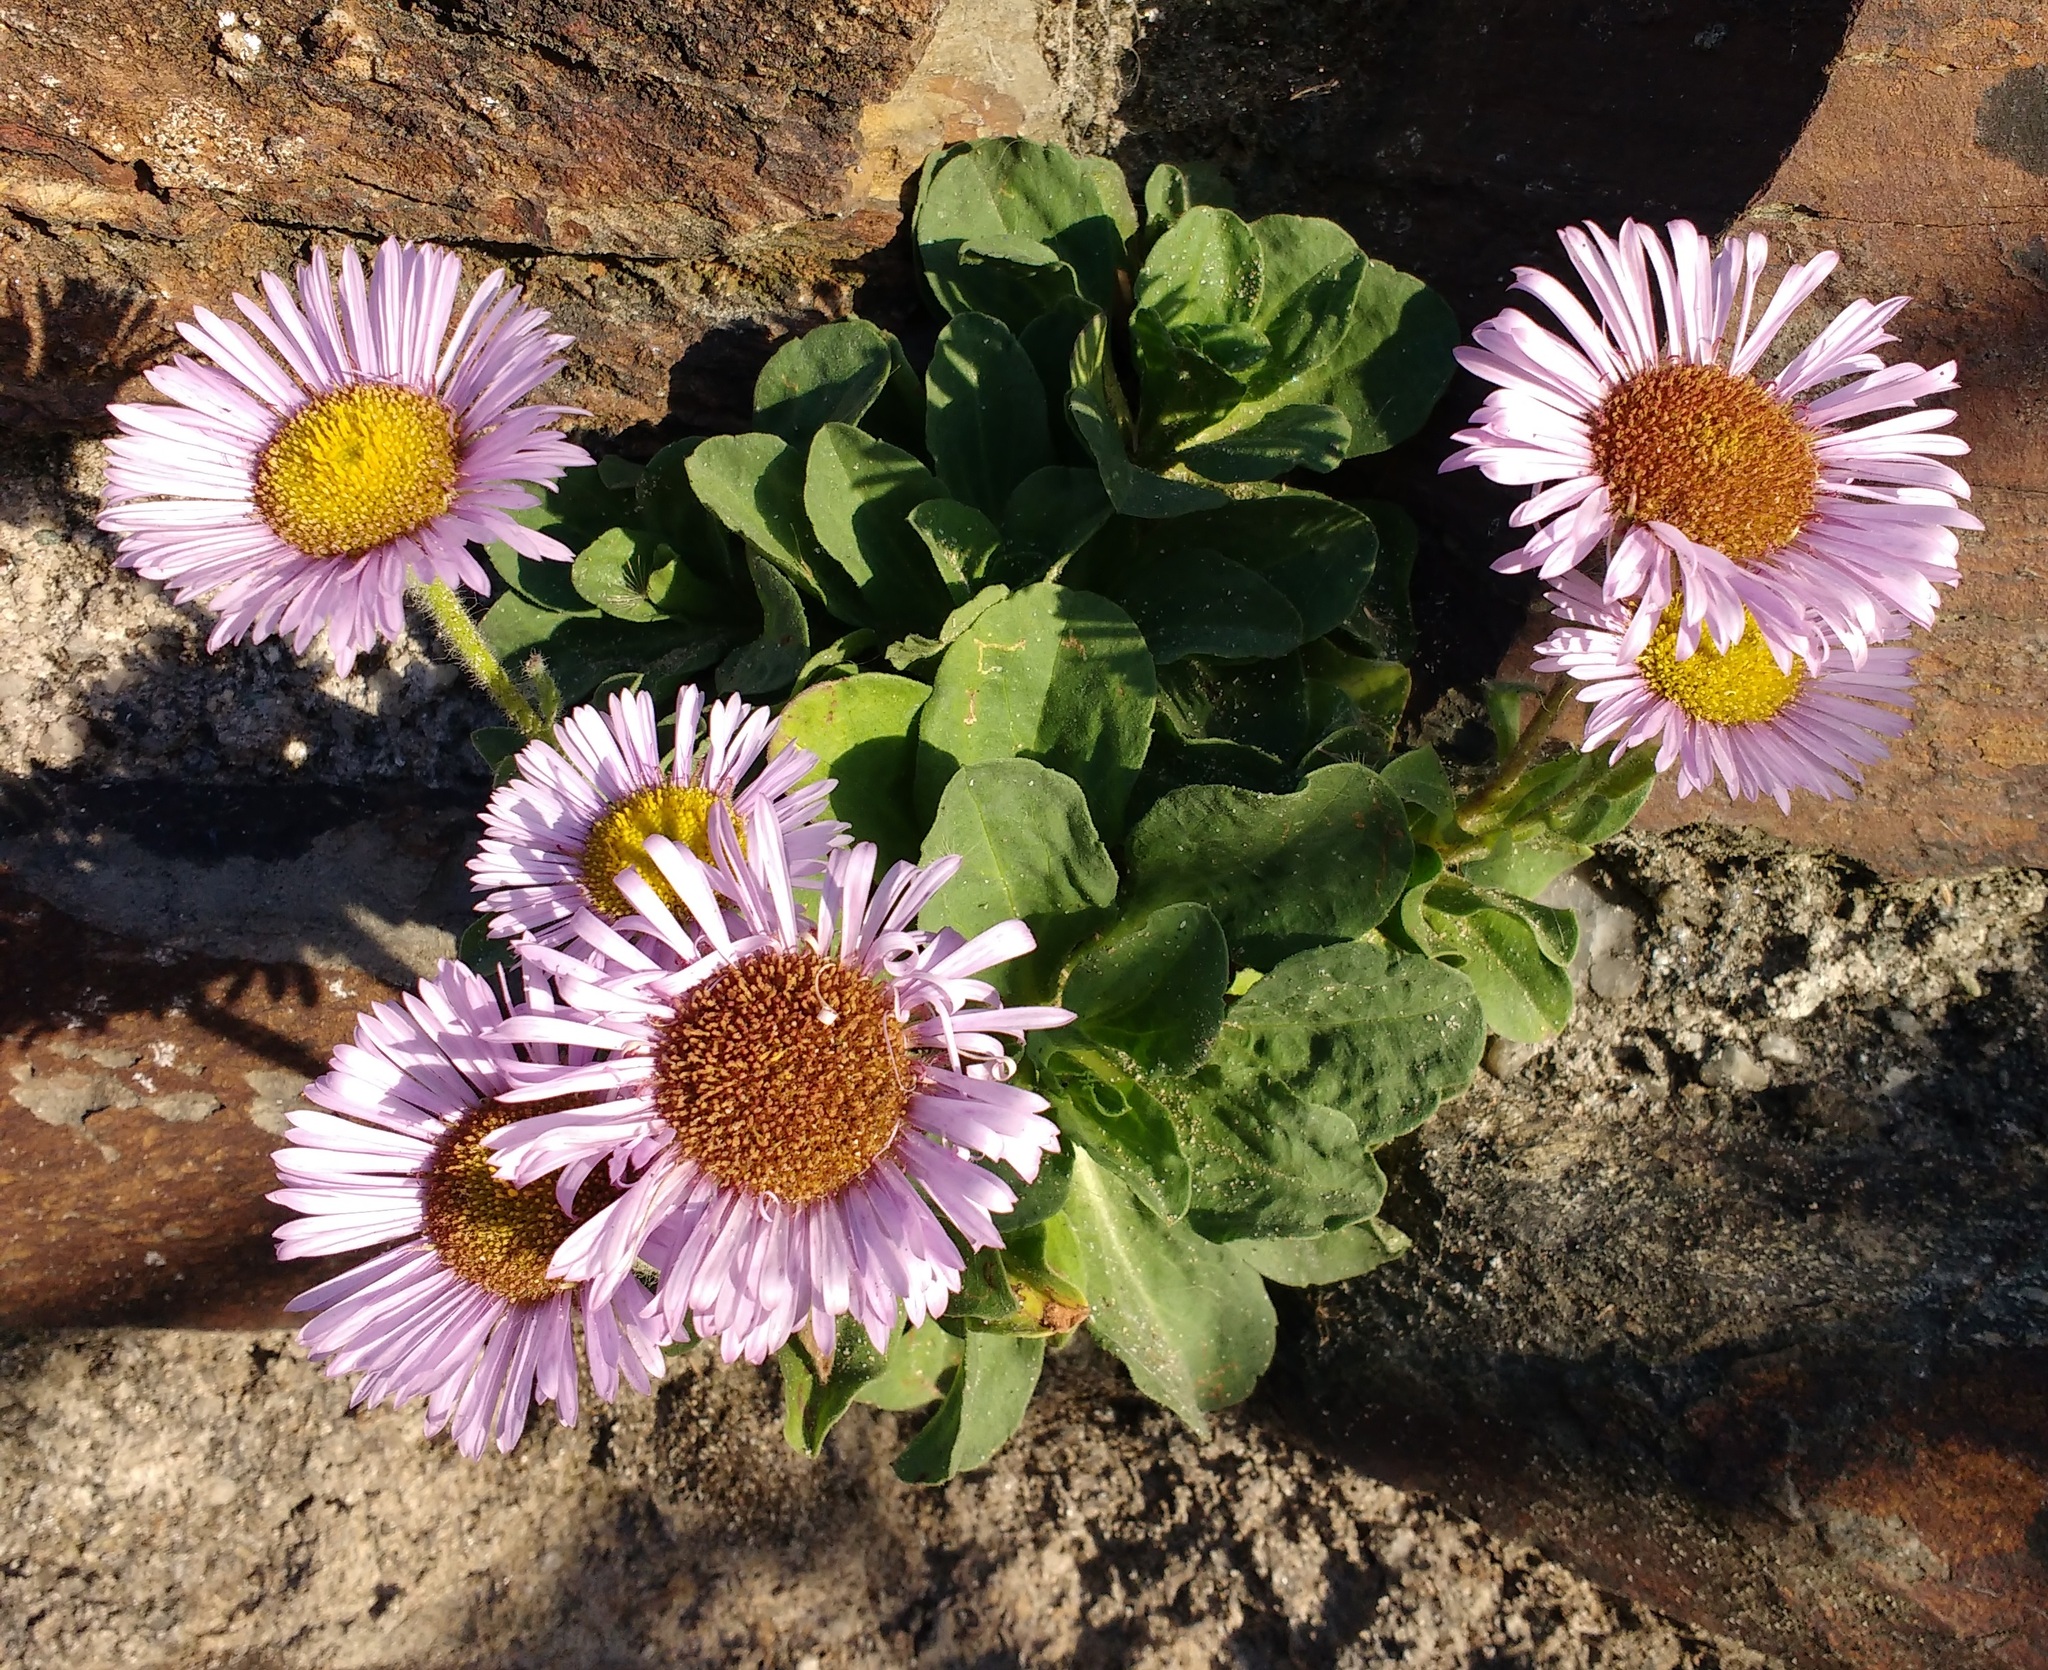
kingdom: Plantae
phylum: Tracheophyta
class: Magnoliopsida
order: Asterales
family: Asteraceae
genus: Erigeron
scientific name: Erigeron glaucus
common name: Seaside daisy
